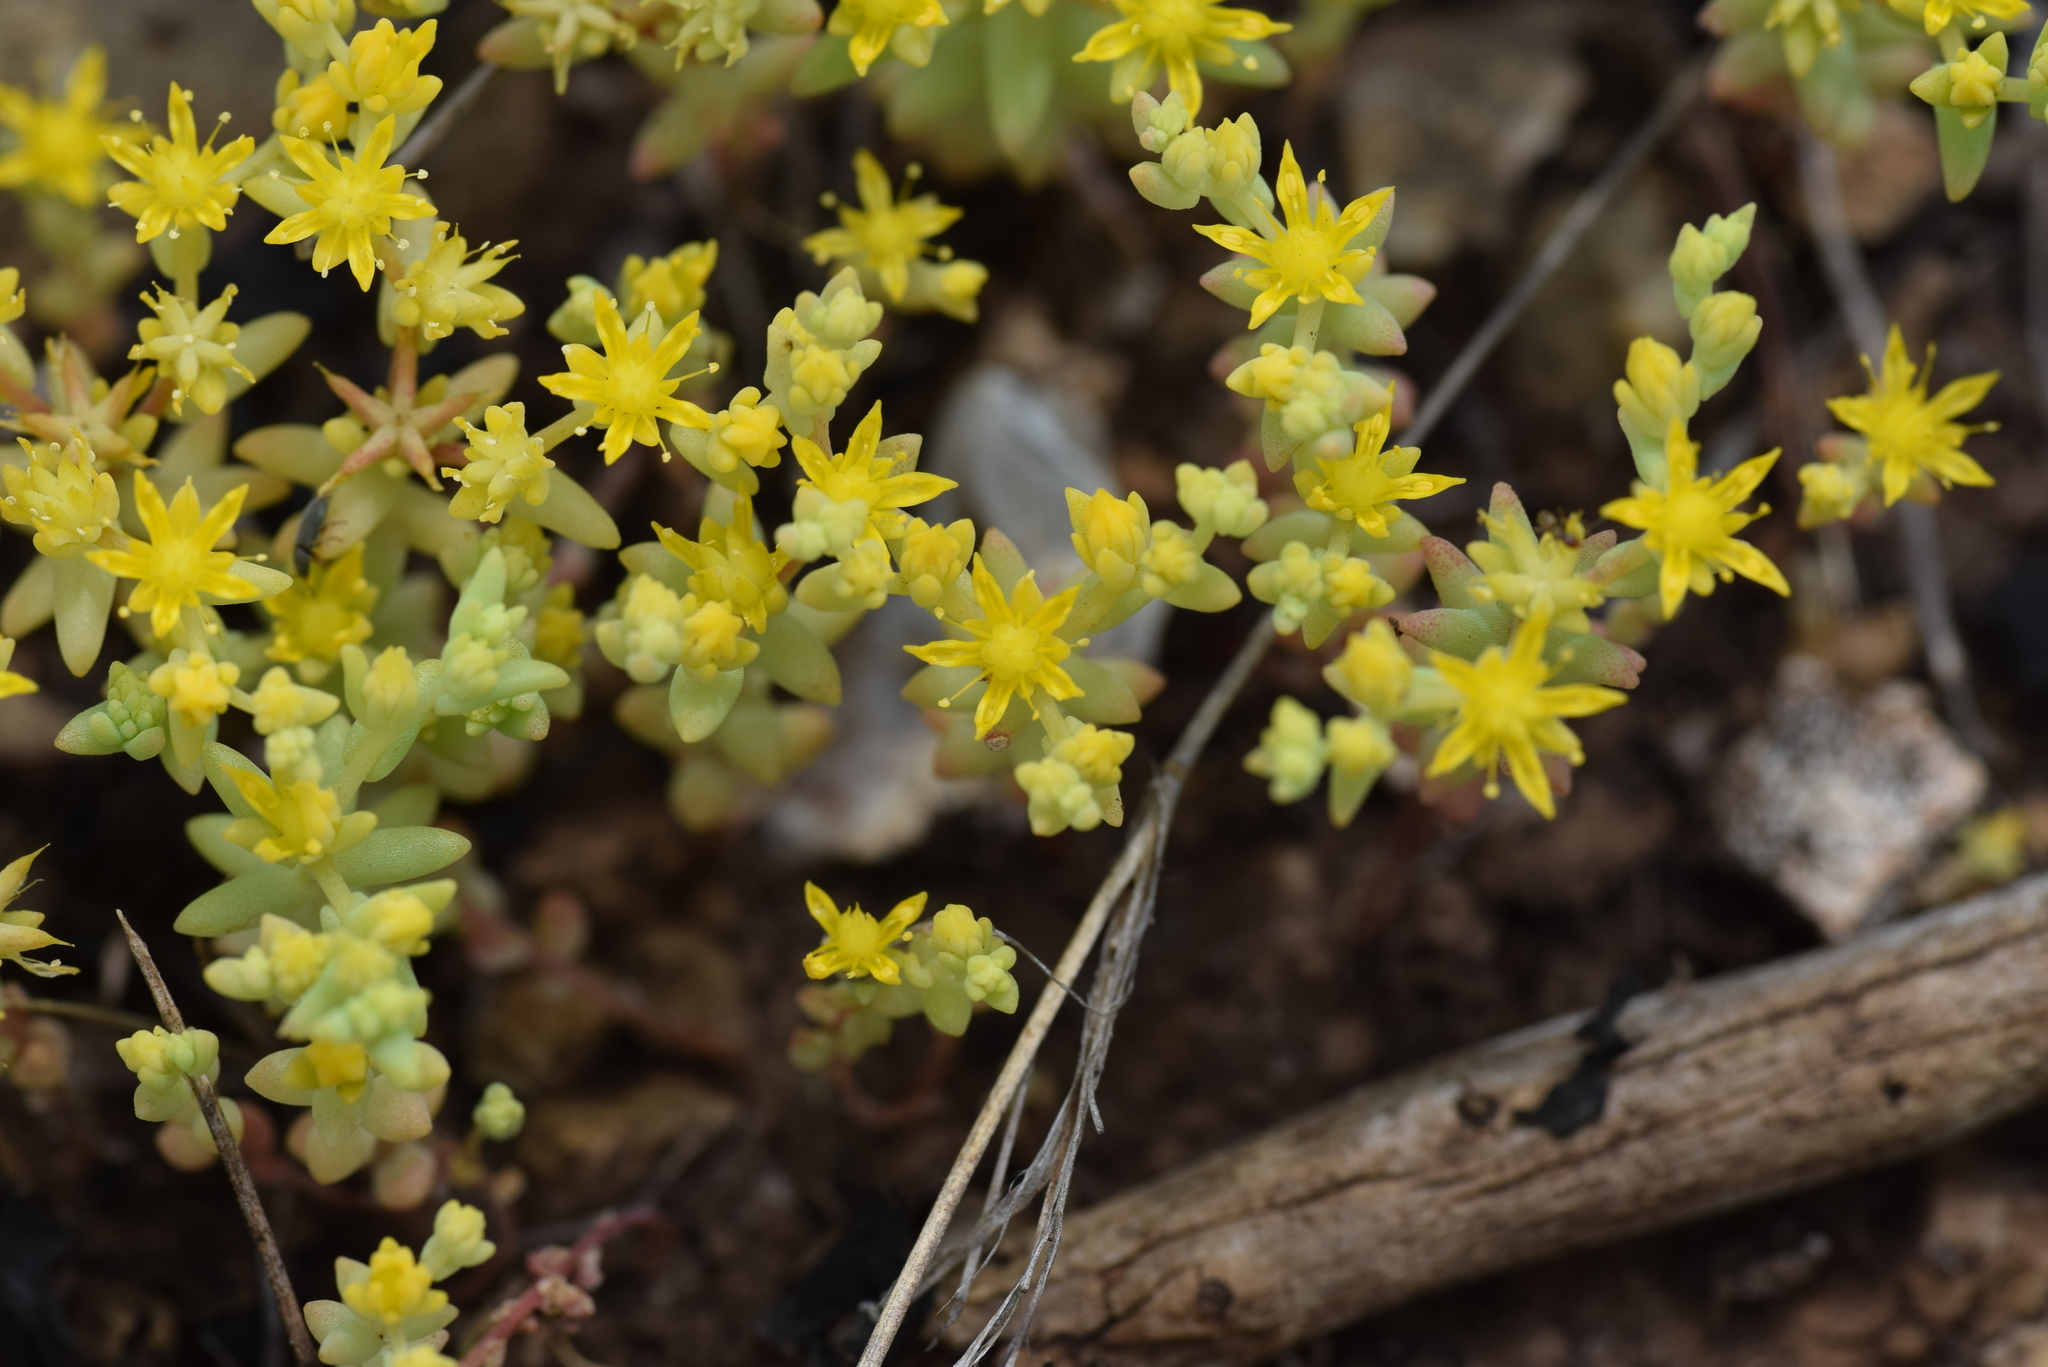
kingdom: Plantae
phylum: Tracheophyta
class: Magnoliopsida
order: Saxifragales
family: Crassulaceae
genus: Sedum
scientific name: Sedum nuttallii
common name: Yellow stonecrop
